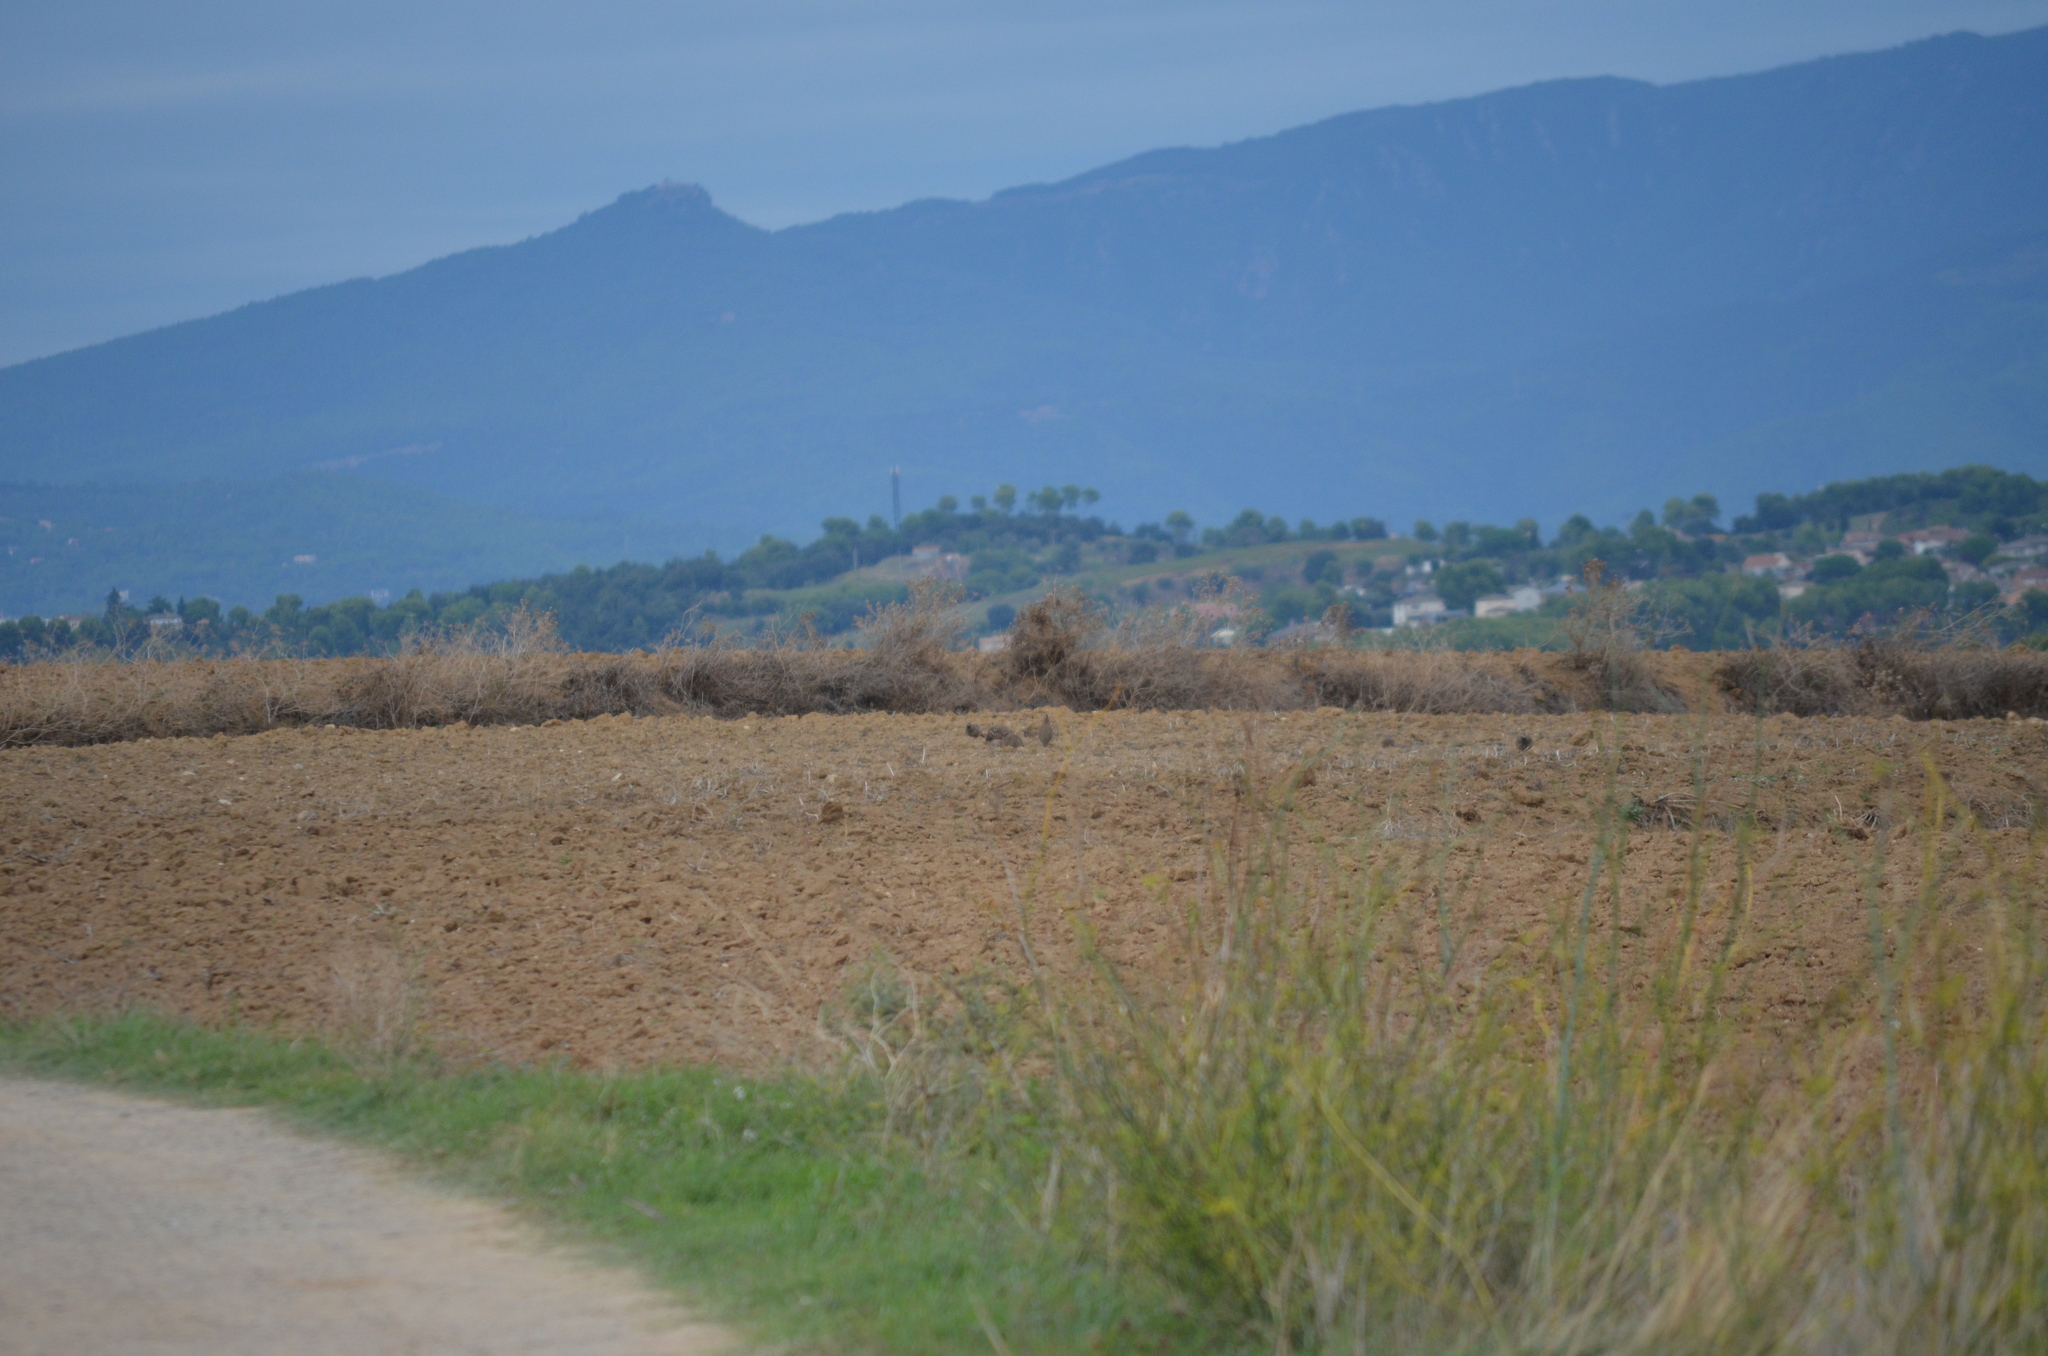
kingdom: Animalia
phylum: Chordata
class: Aves
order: Galliformes
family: Phasianidae
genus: Alectoris
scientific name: Alectoris rufa
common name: Red-legged partridge
